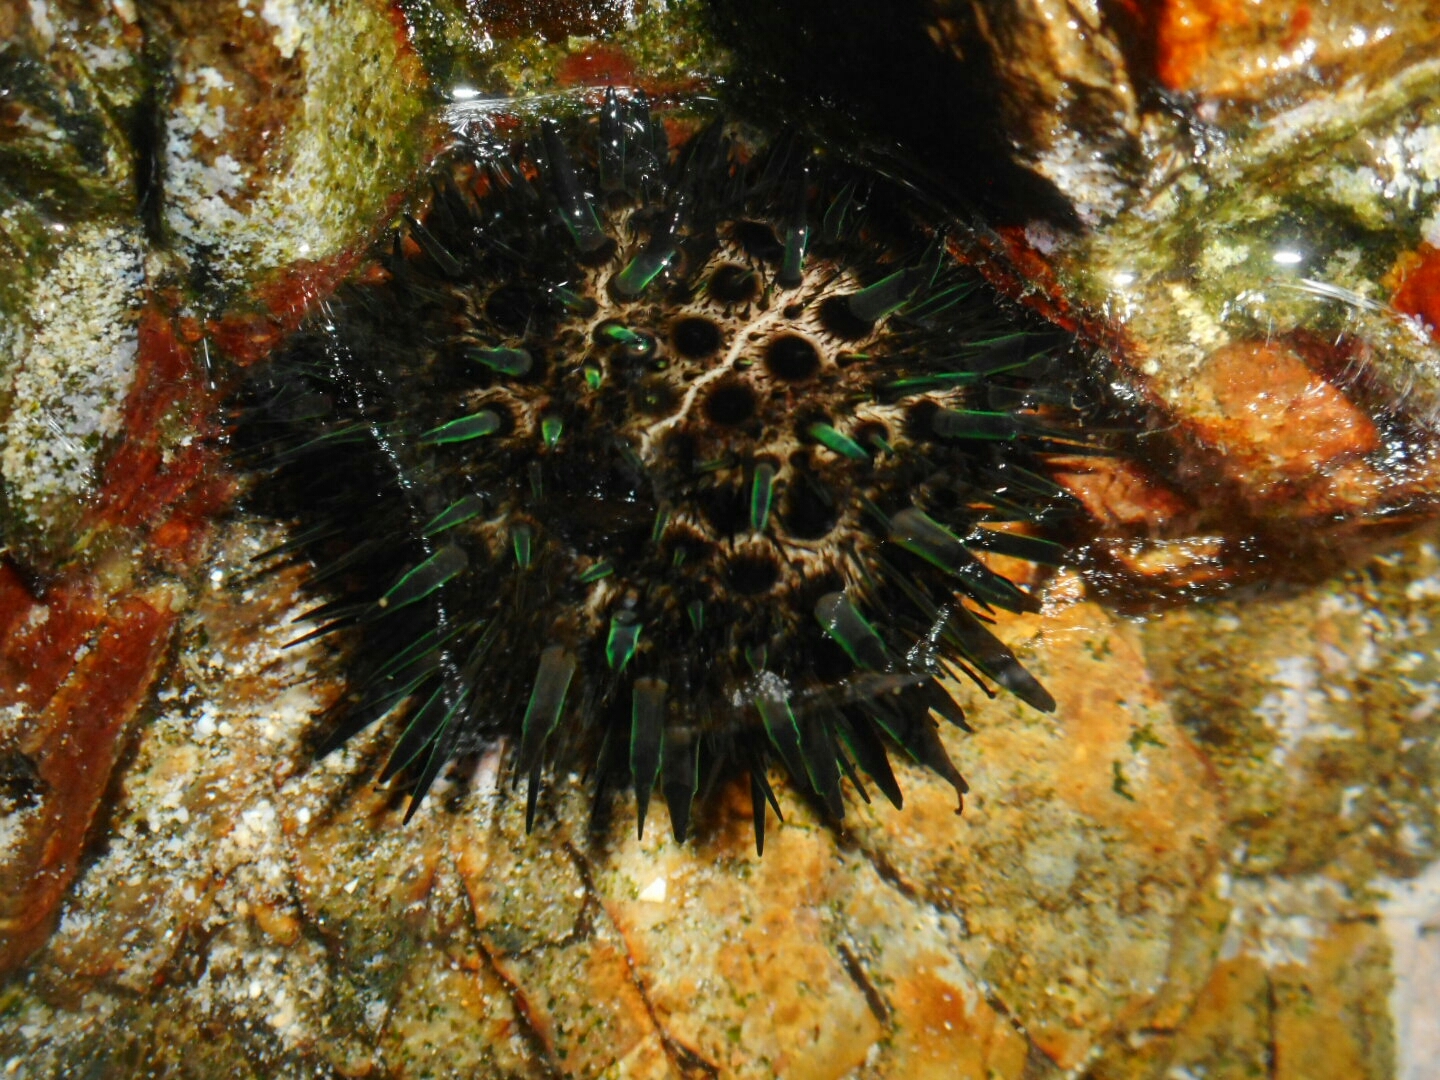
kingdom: Animalia
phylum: Echinodermata
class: Echinoidea
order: Stomopneustoida
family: Stomopneustidae
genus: Stomopneustes
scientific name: Stomopneustes variolaris
